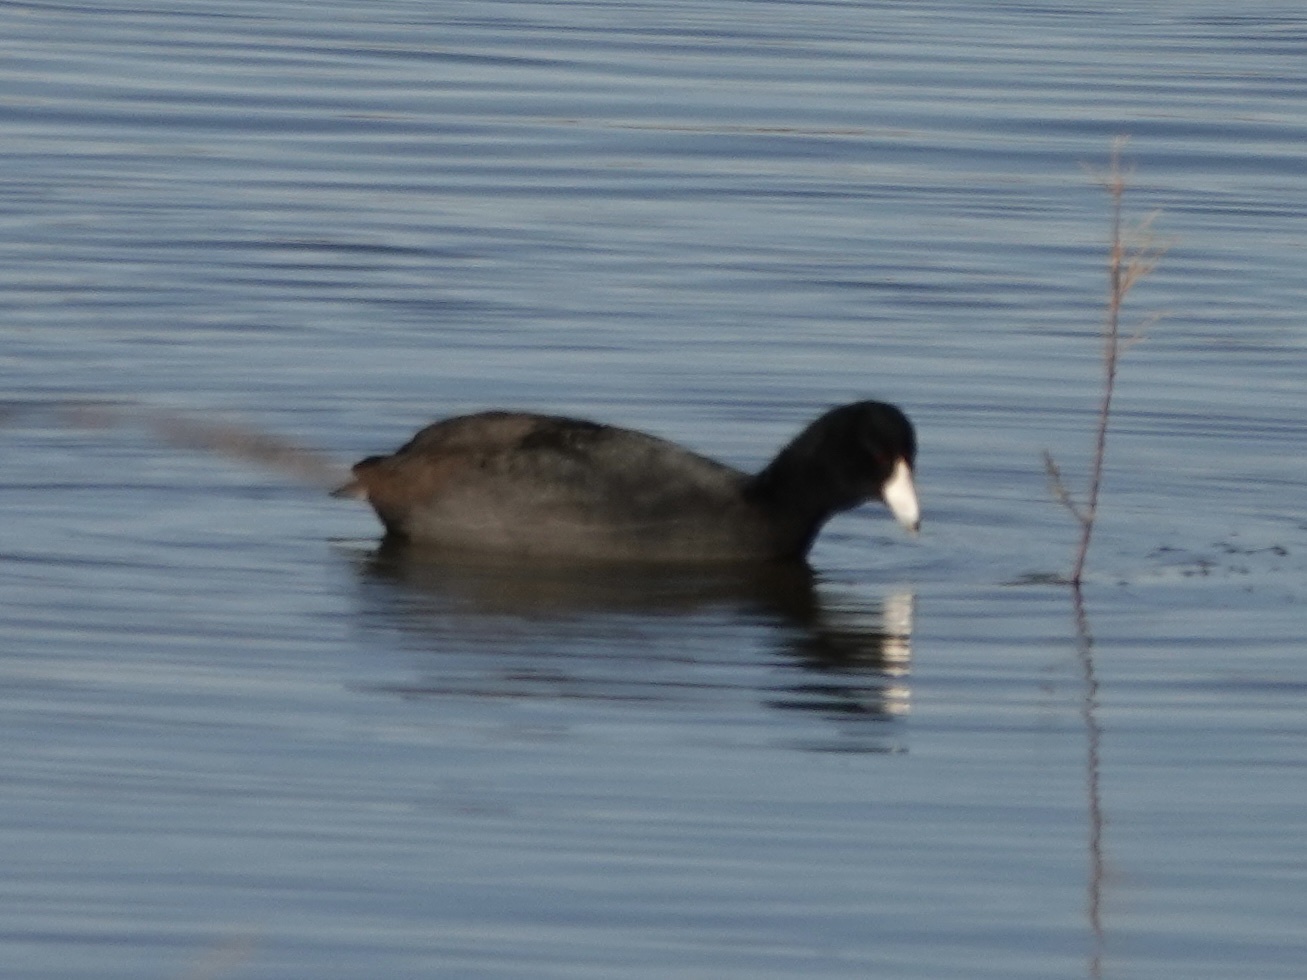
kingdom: Animalia
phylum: Chordata
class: Aves
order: Gruiformes
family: Rallidae
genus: Fulica
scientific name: Fulica americana
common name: American coot
